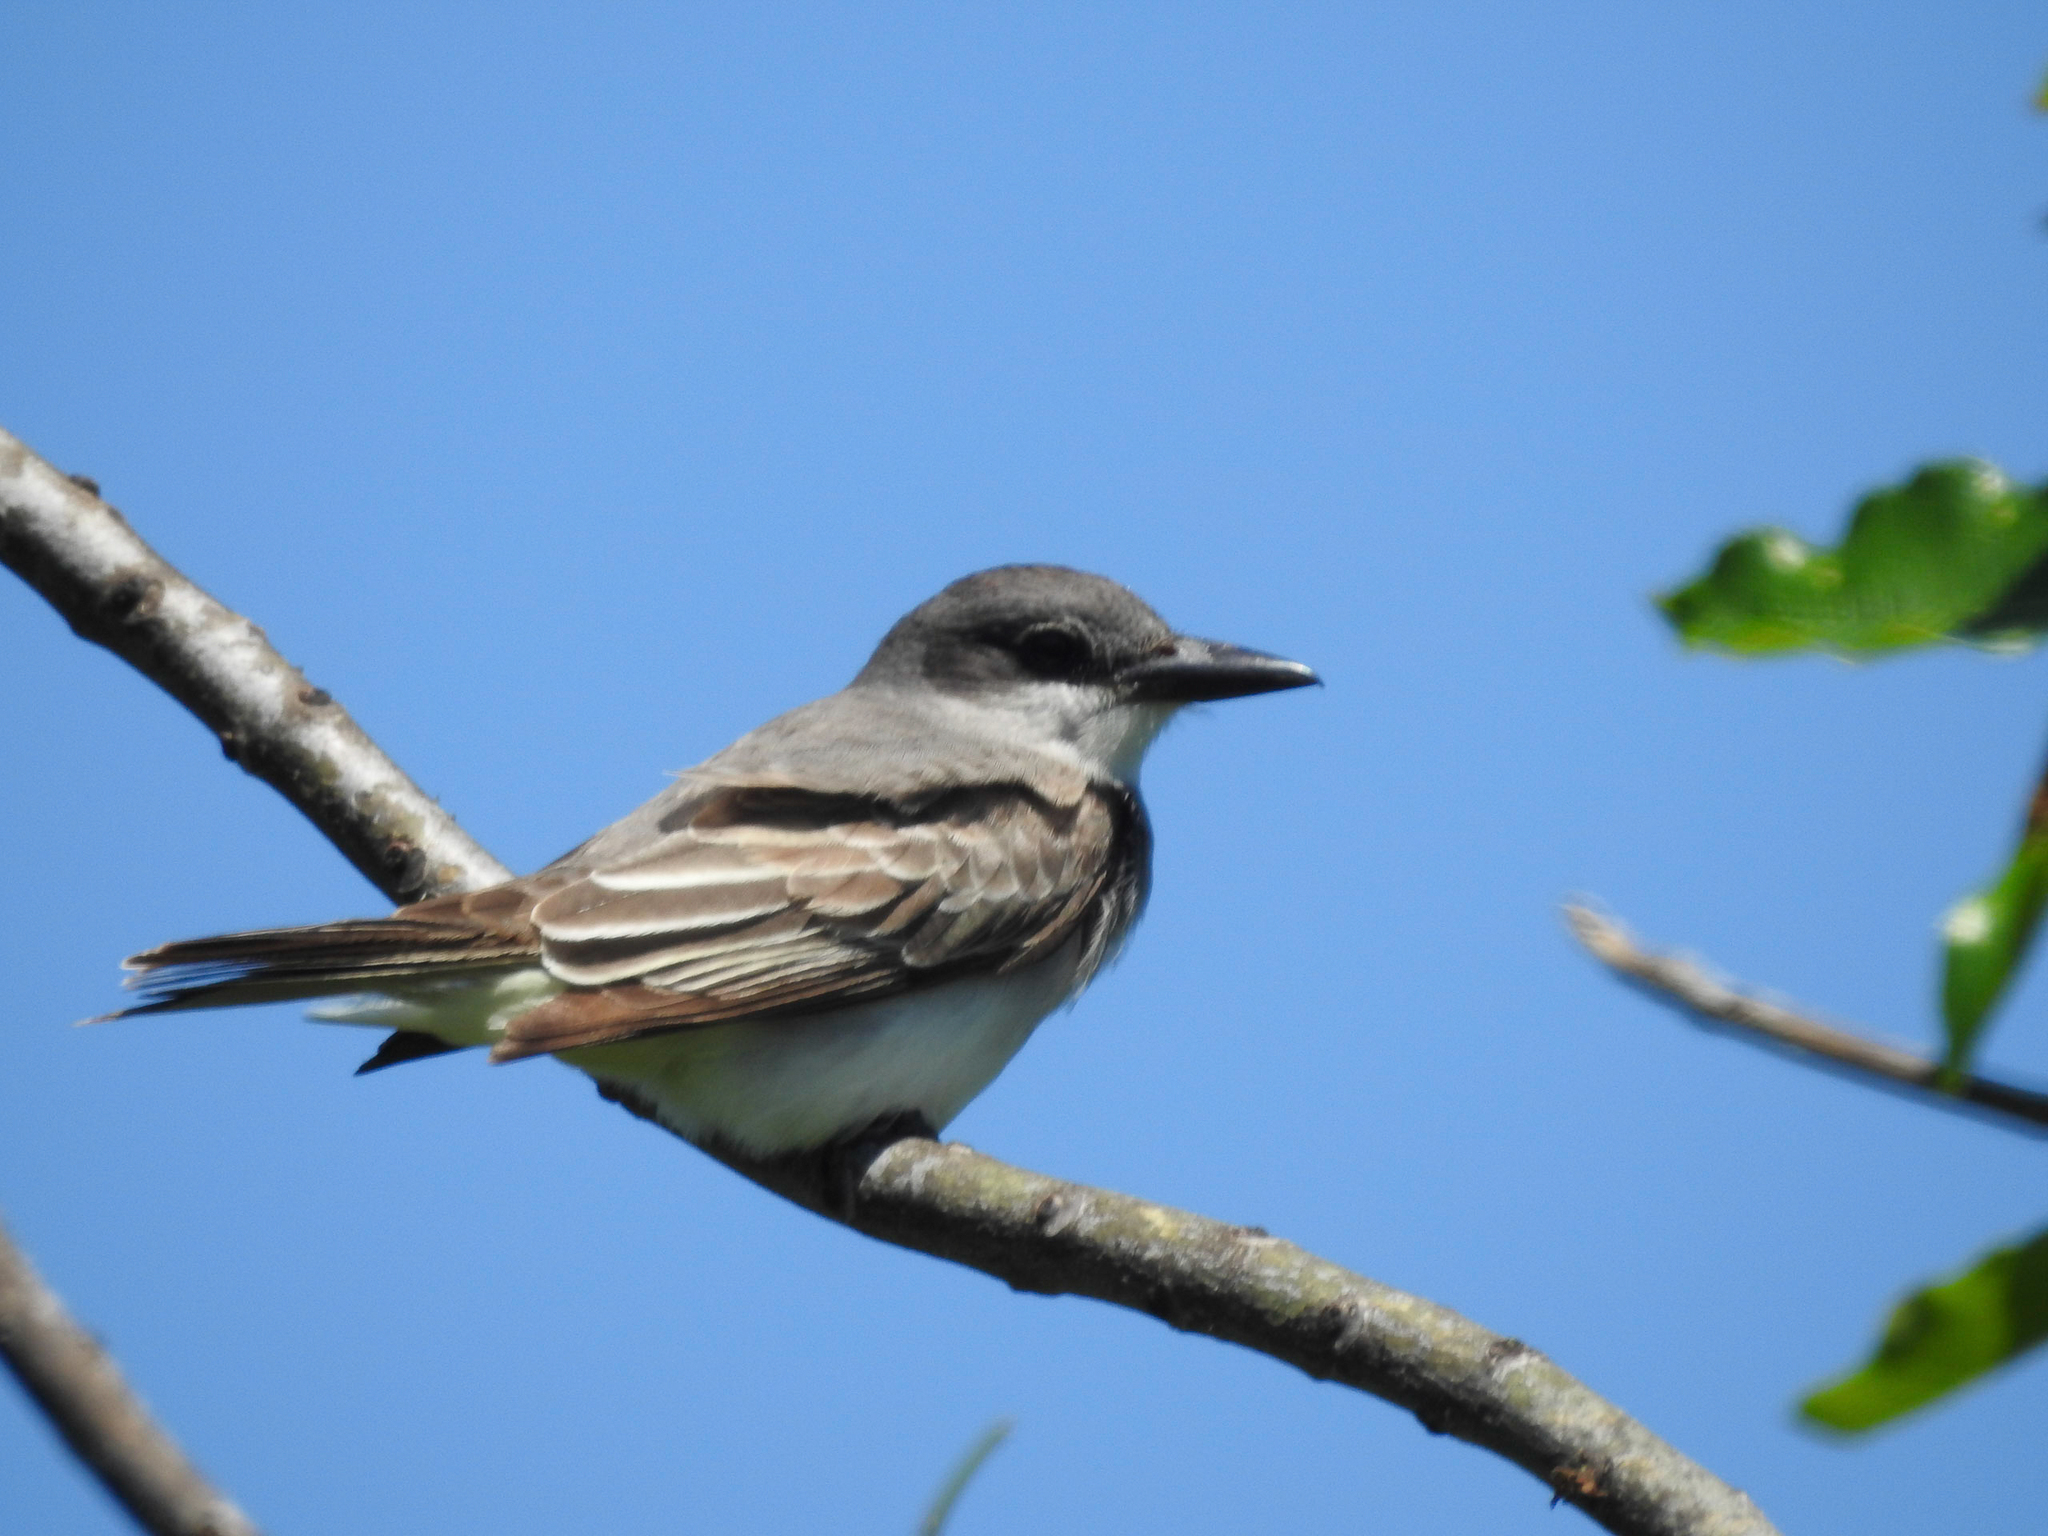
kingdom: Animalia
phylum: Chordata
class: Aves
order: Passeriformes
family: Tyrannidae
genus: Tyrannus
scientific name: Tyrannus dominicensis
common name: Gray kingbird
